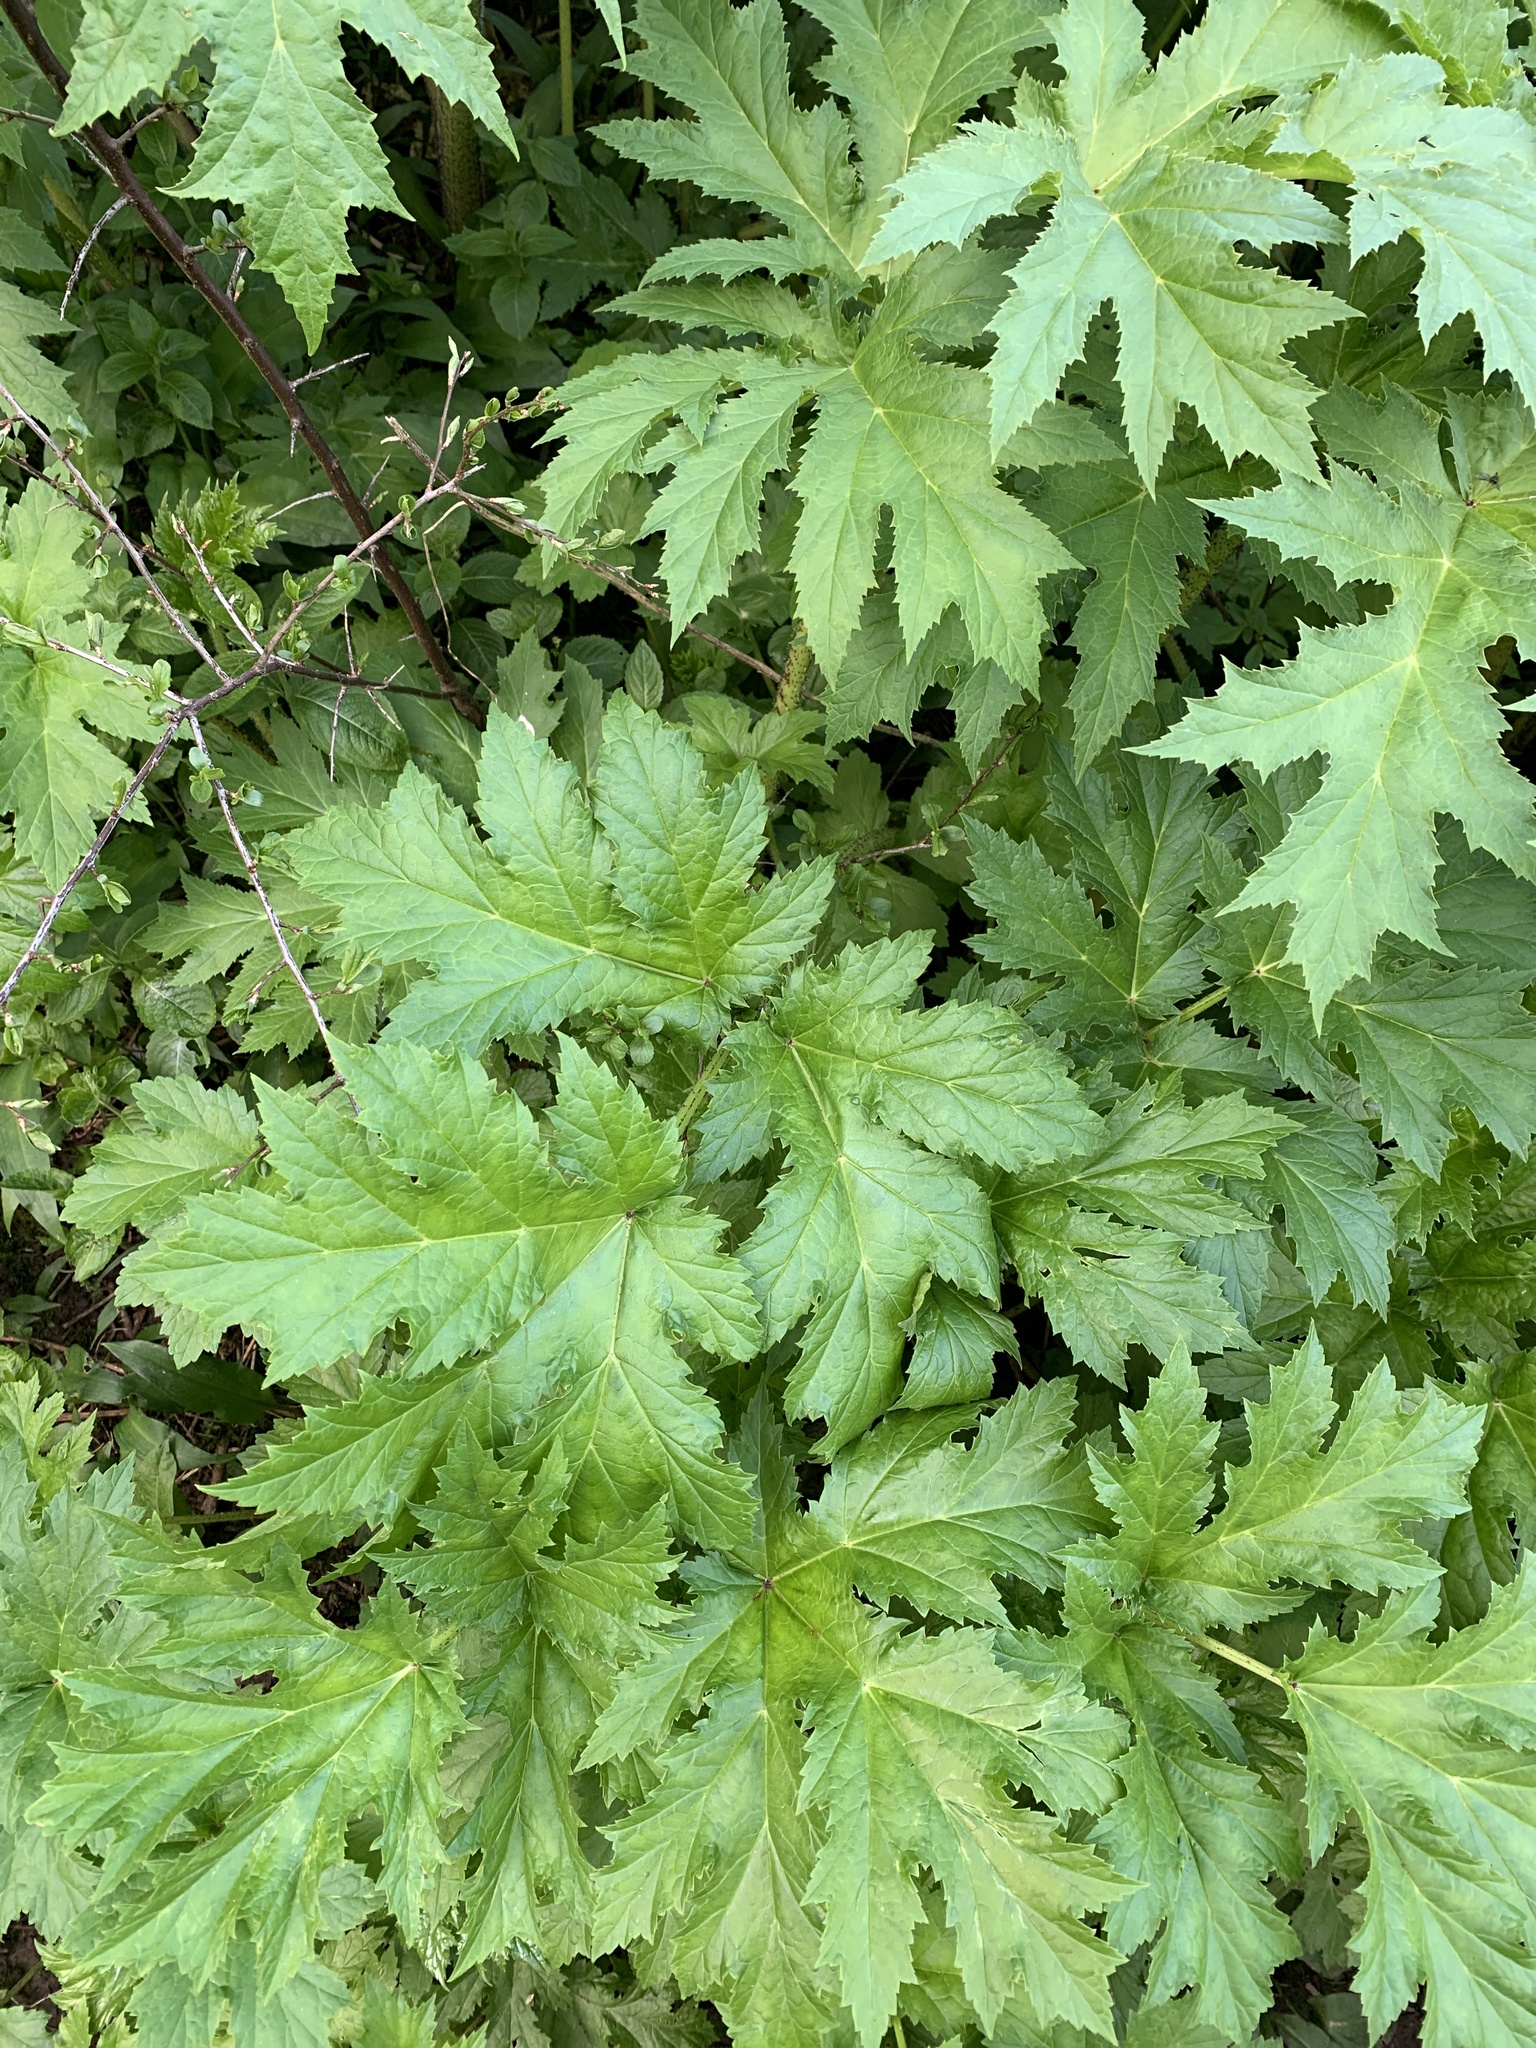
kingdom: Plantae
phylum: Tracheophyta
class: Magnoliopsida
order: Apiales
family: Apiaceae
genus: Heracleum
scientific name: Heracleum mantegazzianum
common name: Giant hogweed
